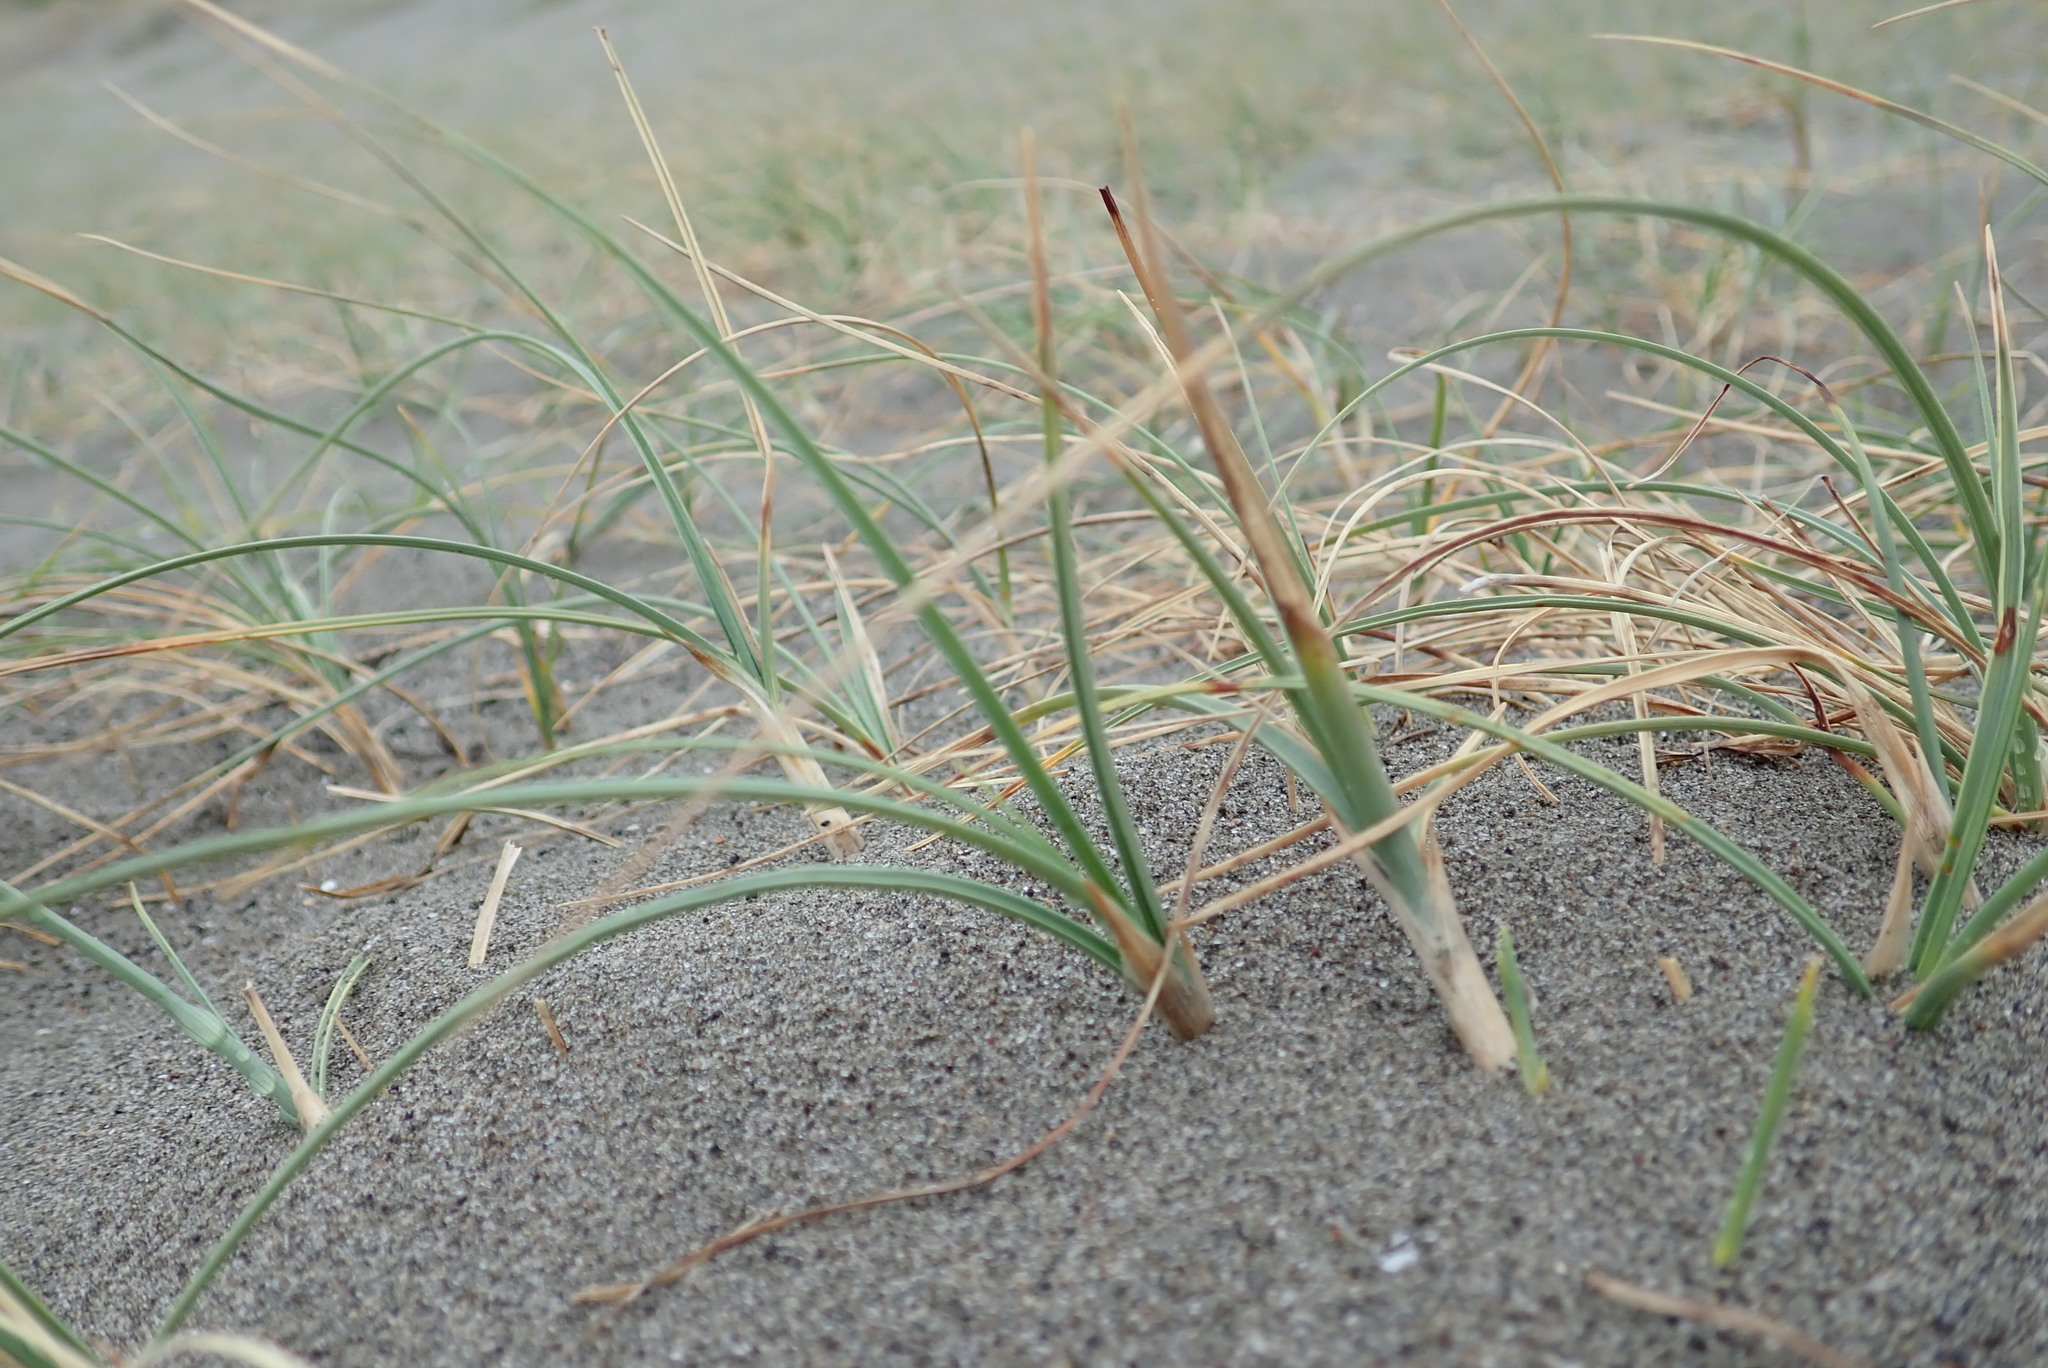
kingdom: Plantae
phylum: Tracheophyta
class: Liliopsida
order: Poales
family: Cyperaceae
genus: Carex
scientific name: Carex pumila
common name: Dwarf sedge
